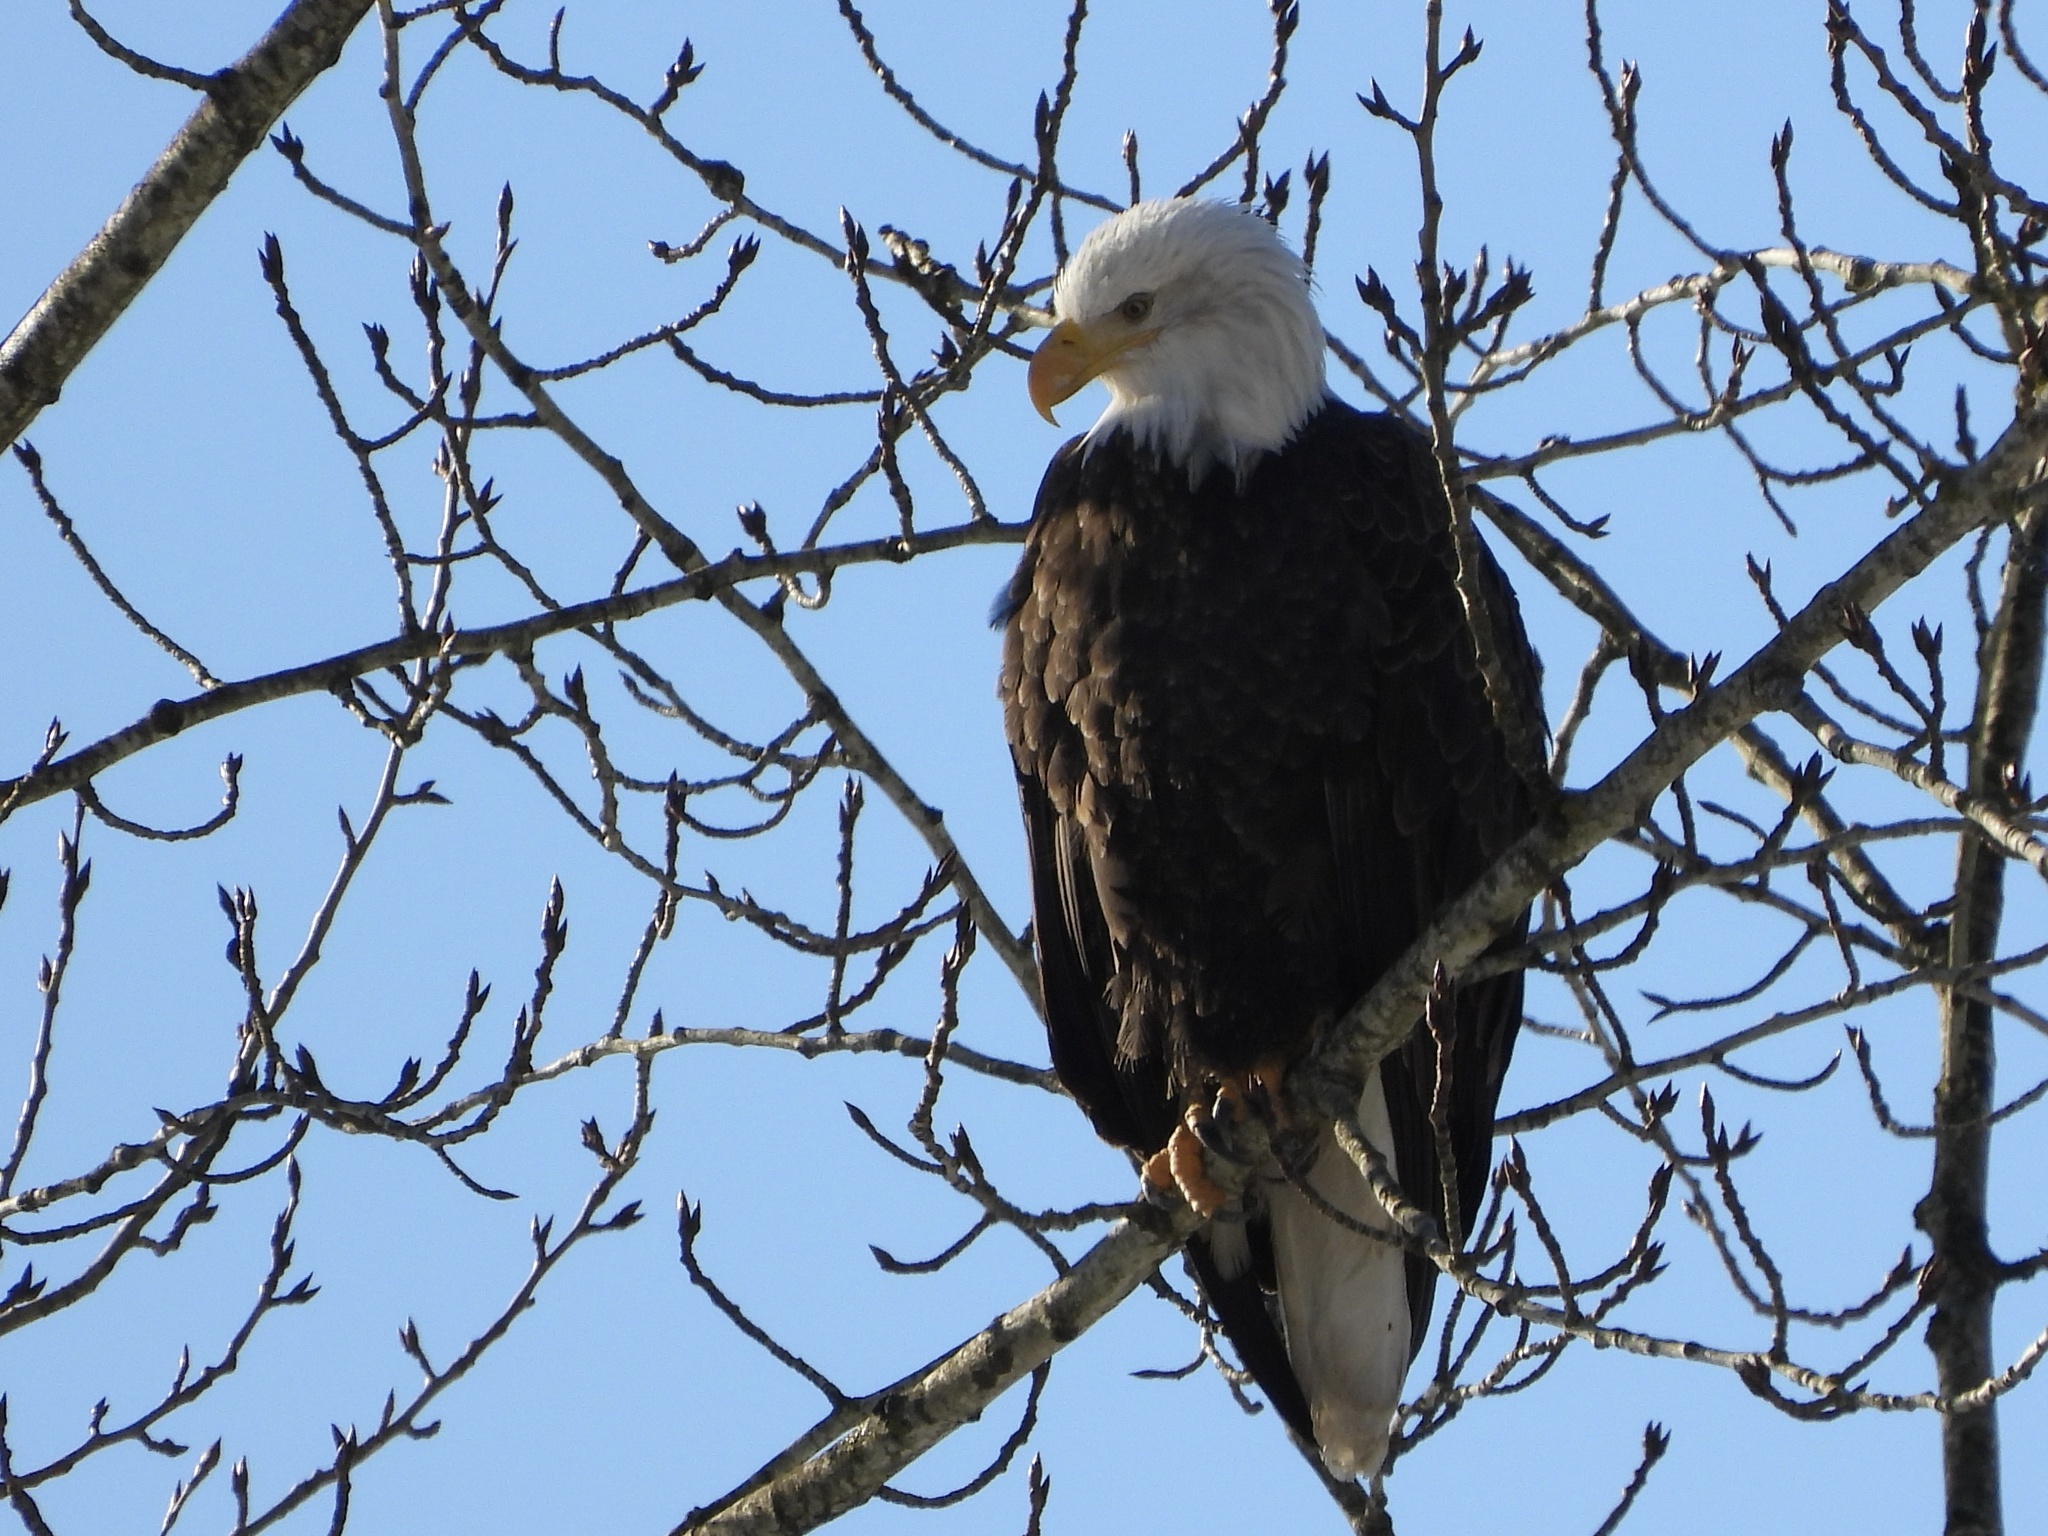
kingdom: Animalia
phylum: Chordata
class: Aves
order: Accipitriformes
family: Accipitridae
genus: Haliaeetus
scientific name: Haliaeetus leucocephalus
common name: Bald eagle
